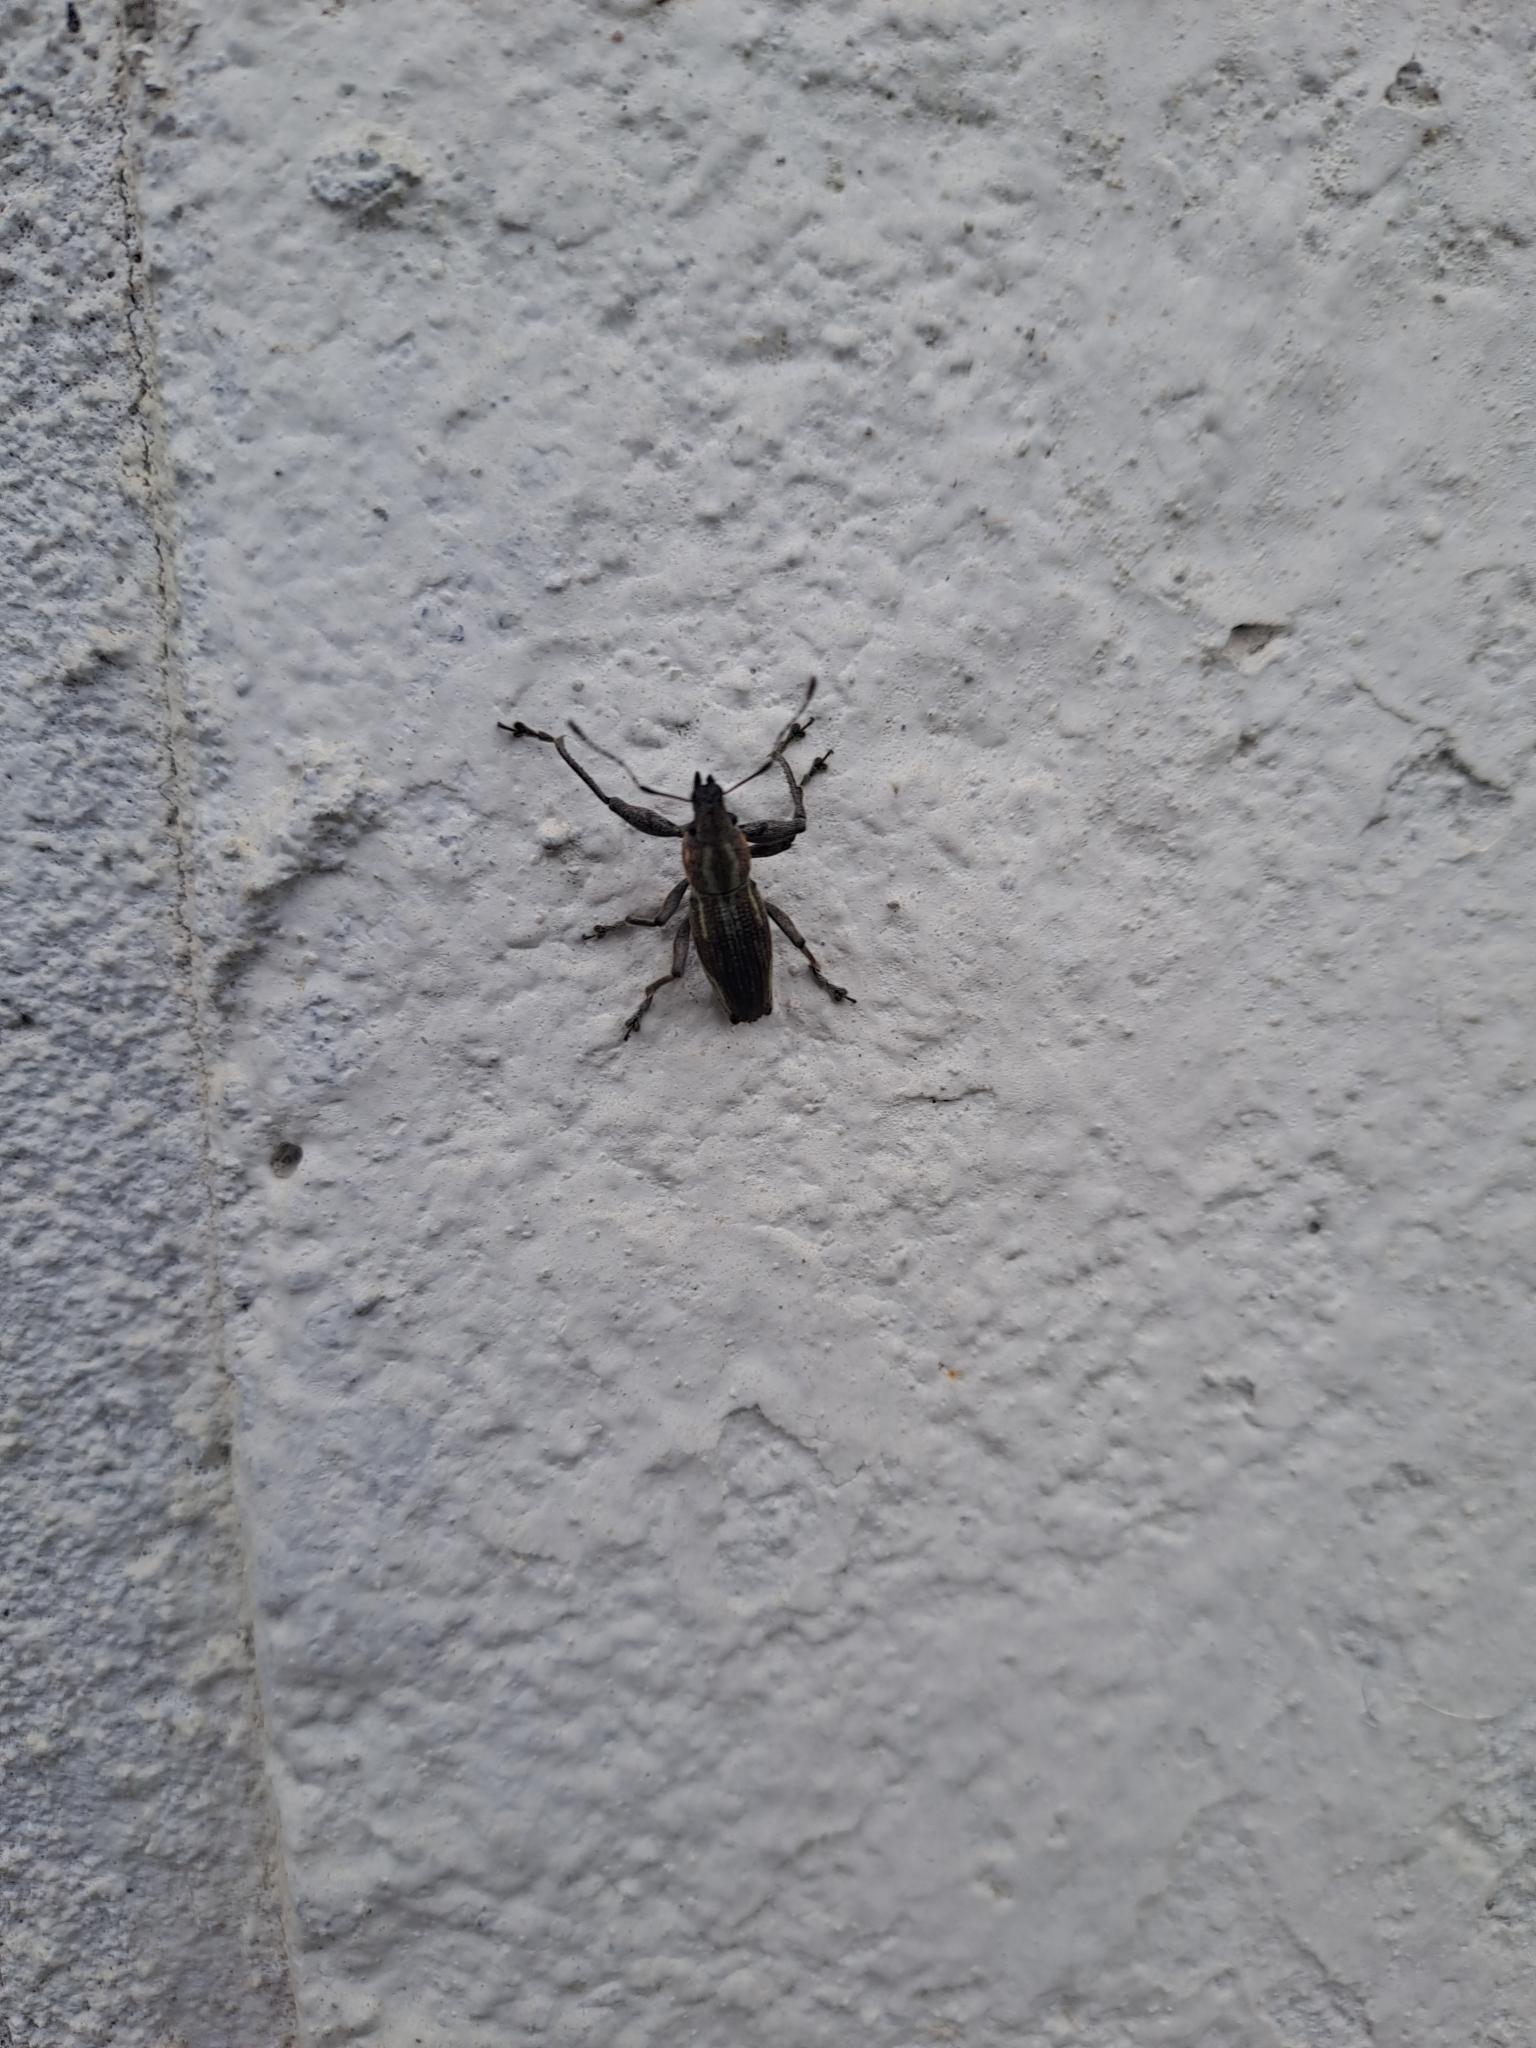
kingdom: Animalia
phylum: Arthropoda
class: Insecta
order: Coleoptera
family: Curculionidae
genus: Naupactus
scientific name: Naupactus xanthographus
